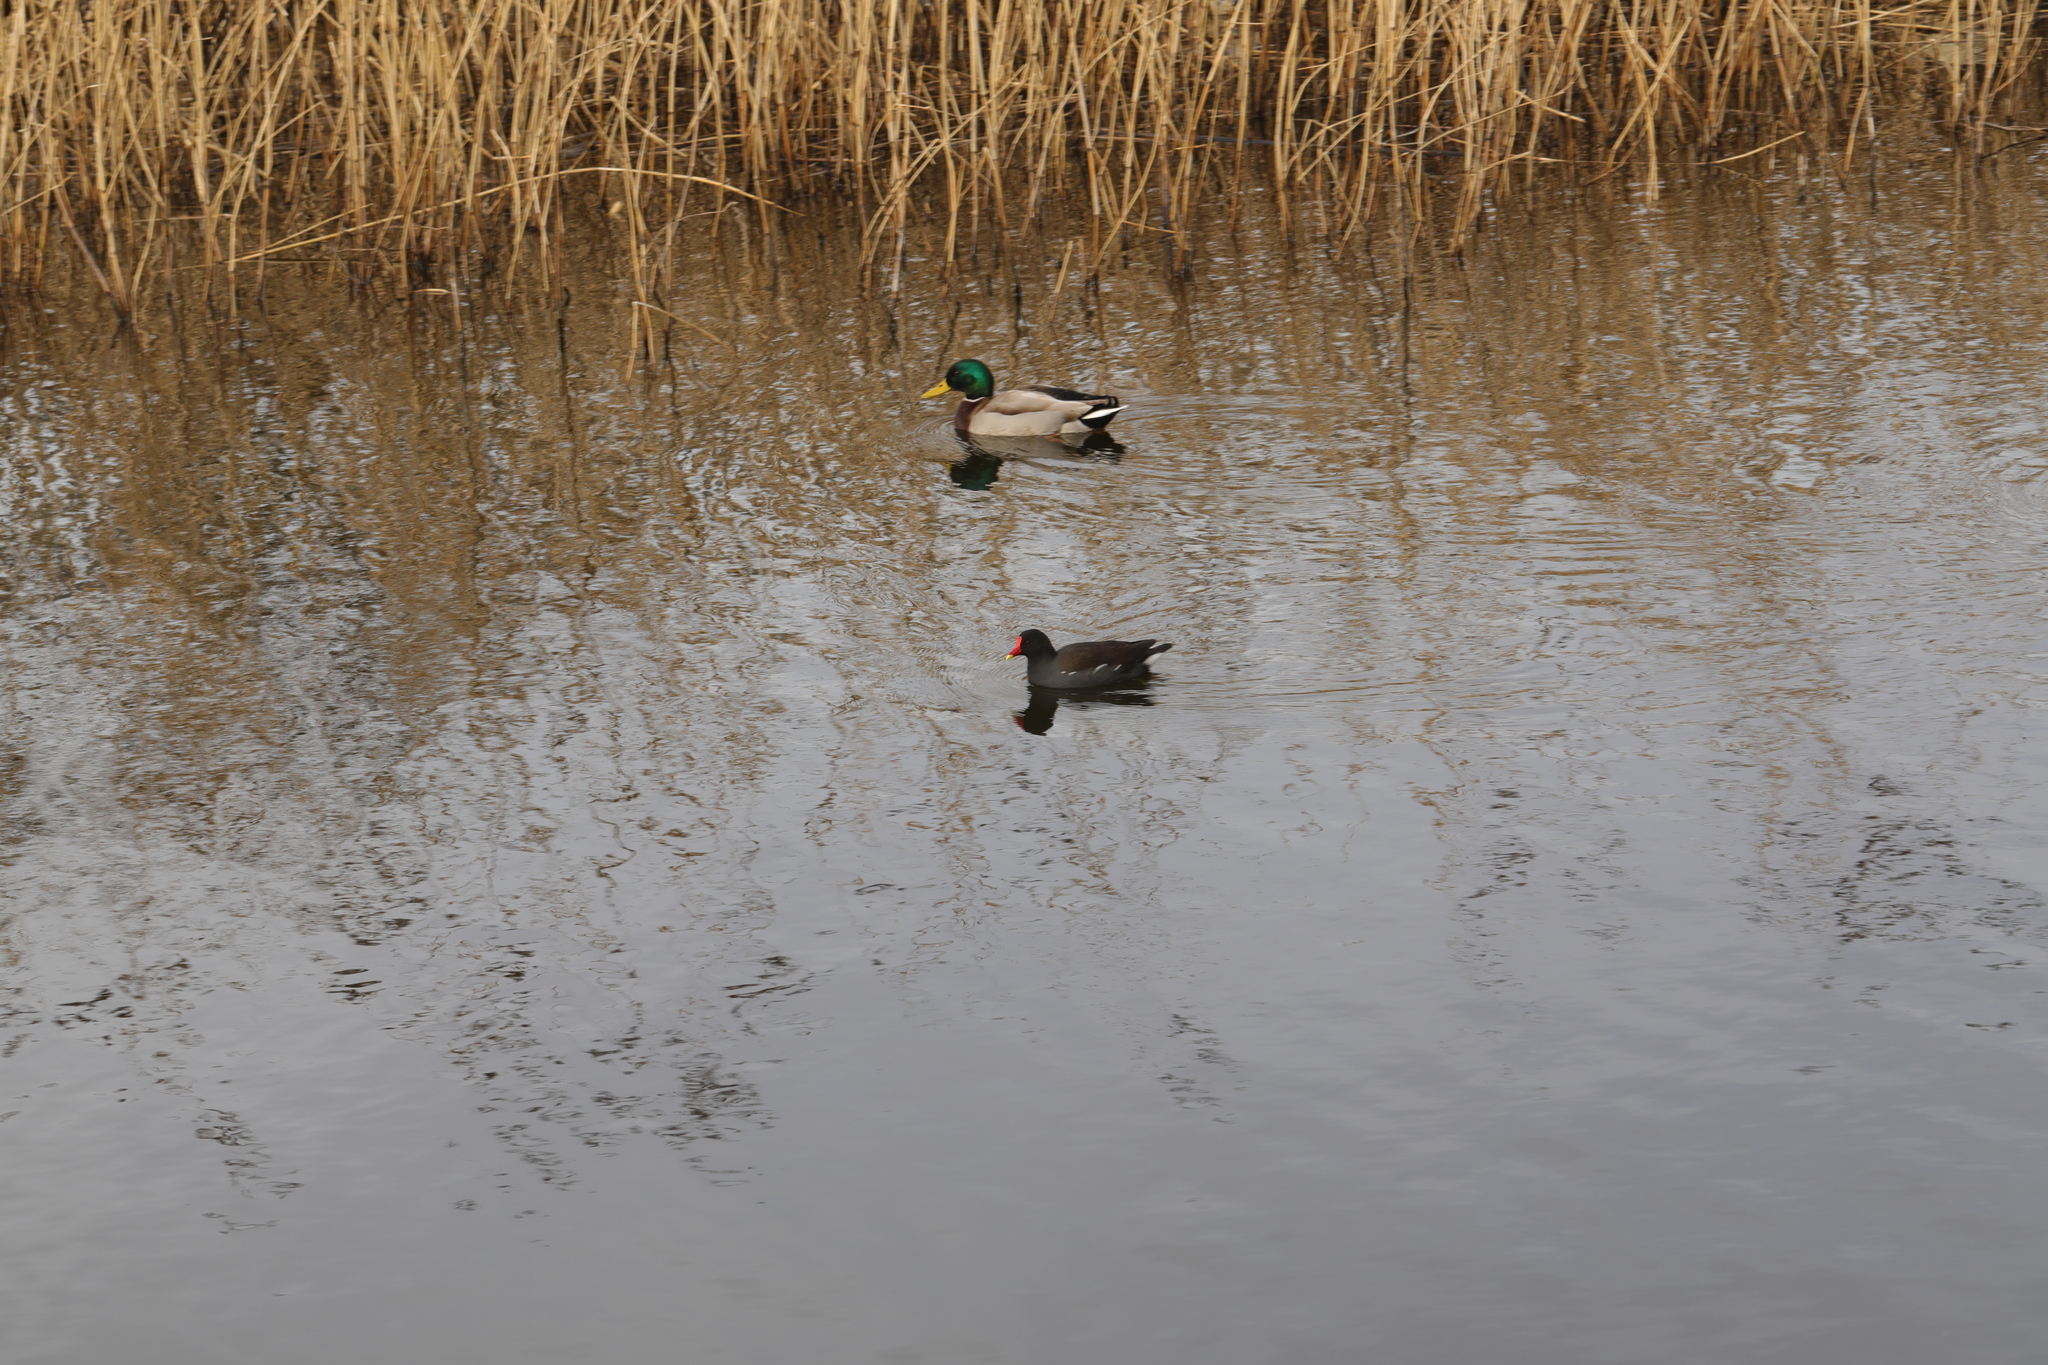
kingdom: Animalia
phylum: Chordata
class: Aves
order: Gruiformes
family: Rallidae
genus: Gallinula
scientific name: Gallinula chloropus
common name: Common moorhen
